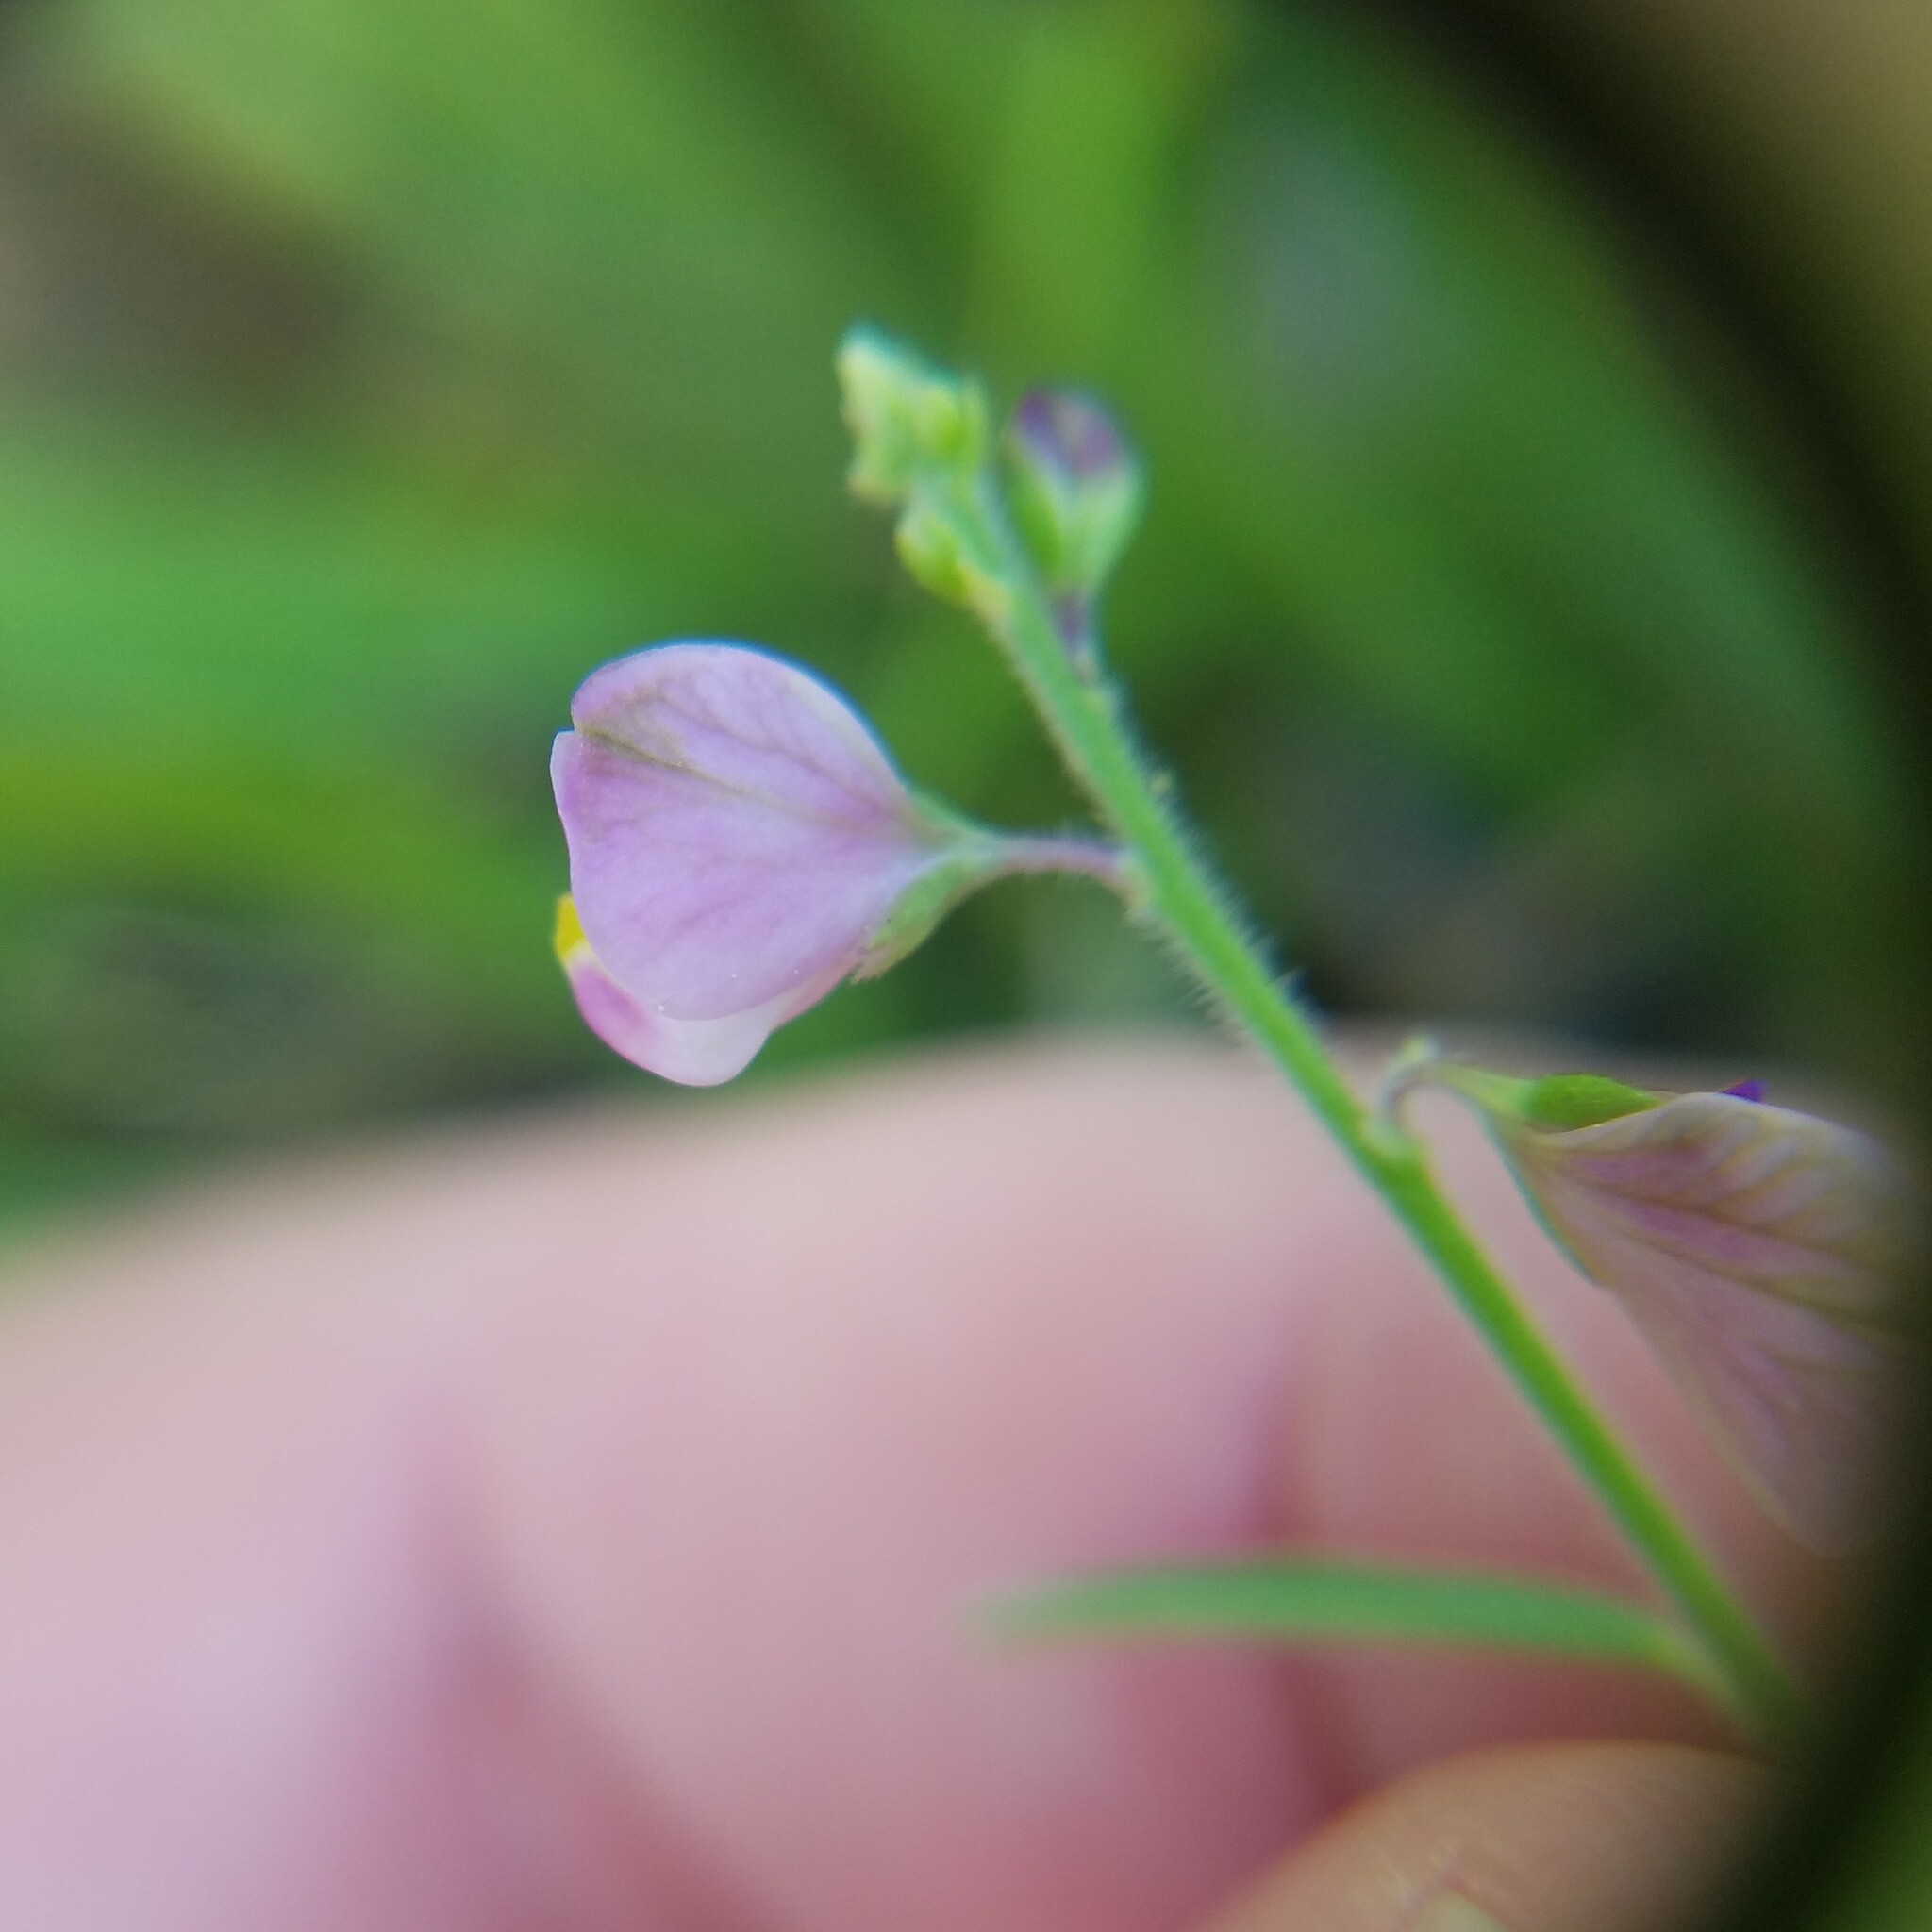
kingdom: Plantae
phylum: Tracheophyta
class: Magnoliopsida
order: Fabales
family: Polygalaceae
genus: Asemeia
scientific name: Asemeia grandiflora
